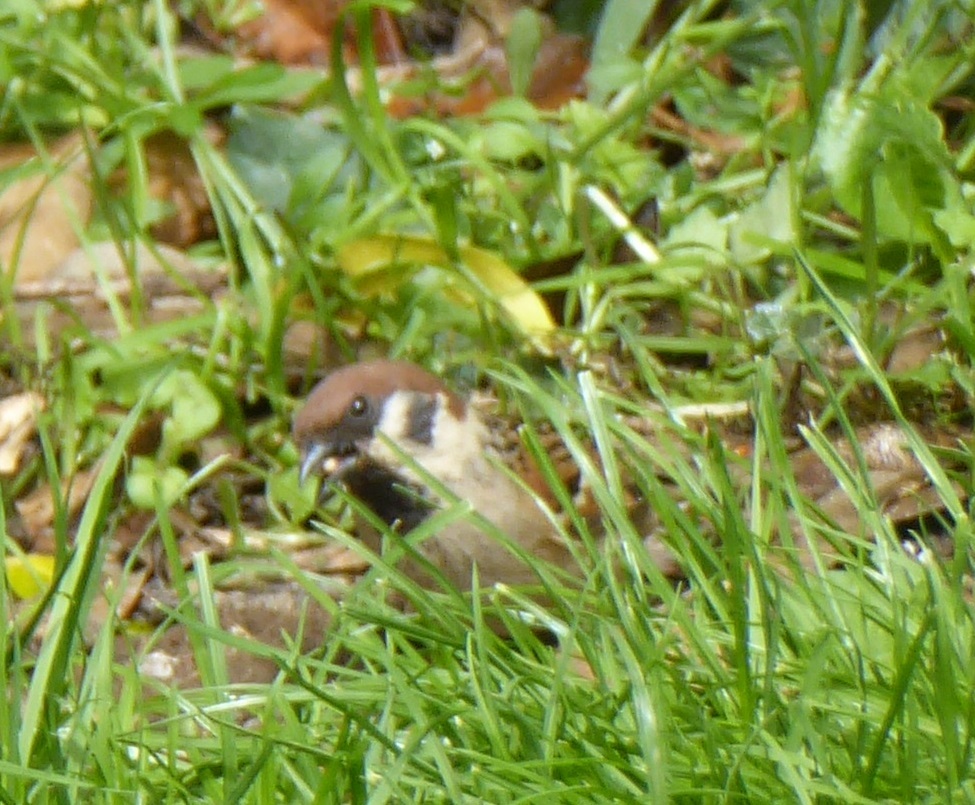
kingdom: Animalia
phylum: Chordata
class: Aves
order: Passeriformes
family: Passeridae
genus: Passer
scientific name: Passer montanus
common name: Eurasian tree sparrow
